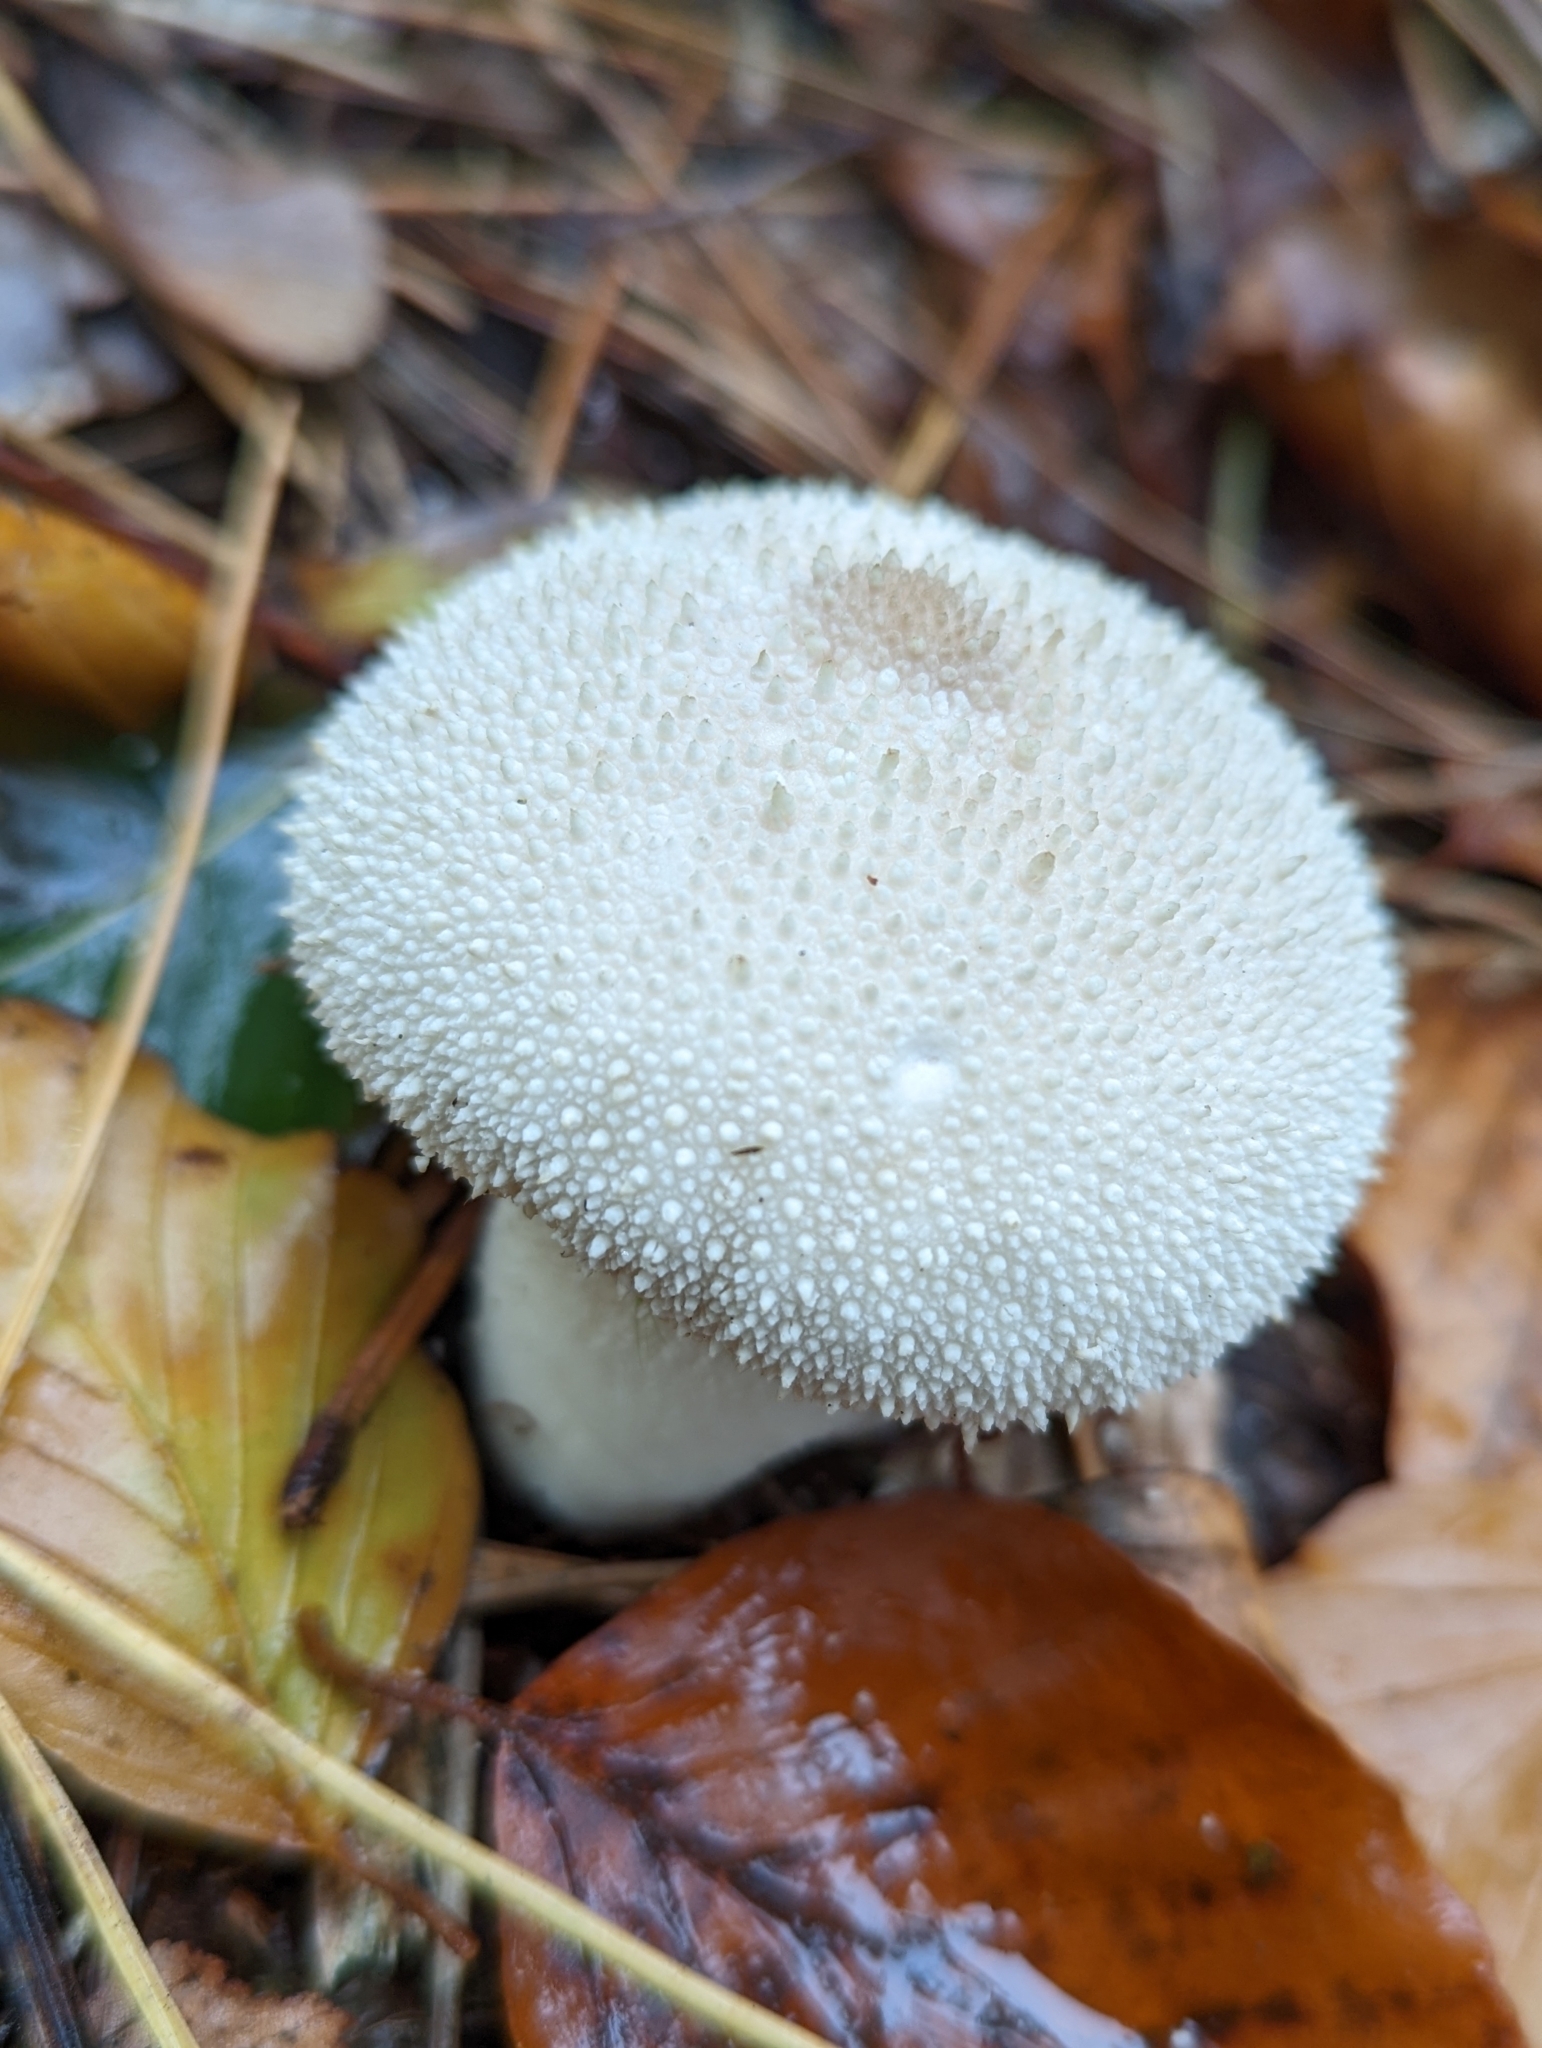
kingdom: Fungi
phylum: Basidiomycota
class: Agaricomycetes
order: Agaricales
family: Lycoperdaceae
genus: Lycoperdon
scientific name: Lycoperdon perlatum
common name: Common puffball
